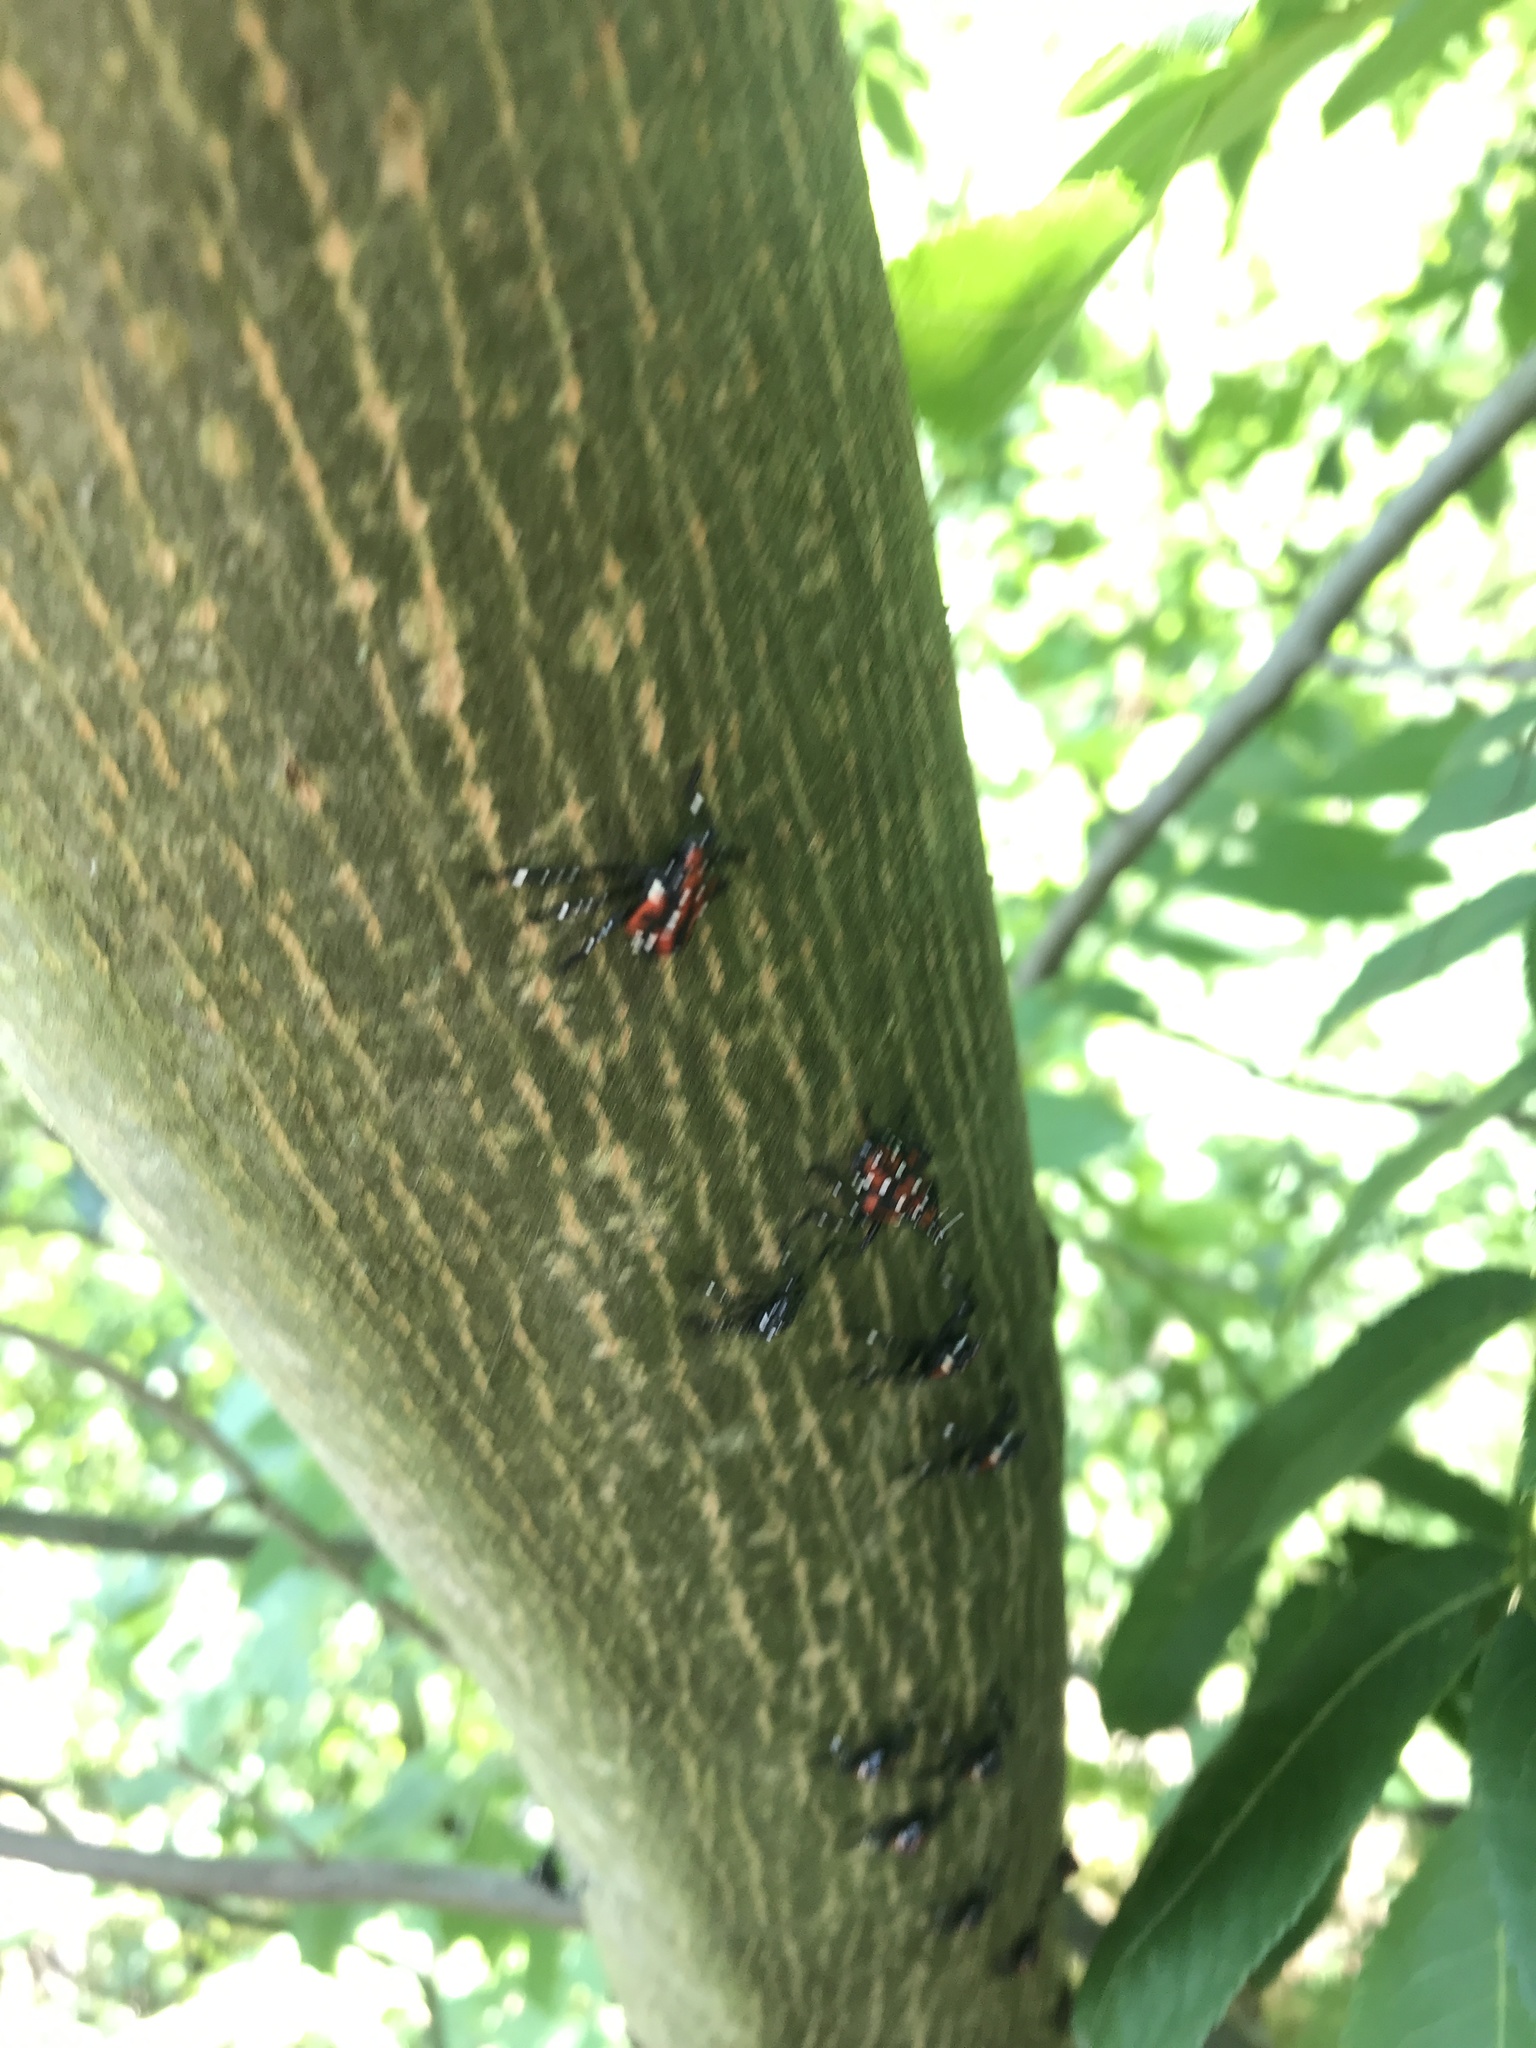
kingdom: Plantae
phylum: Tracheophyta
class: Magnoliopsida
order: Fagales
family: Juglandaceae
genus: Pterocarya
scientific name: Pterocarya stenoptera
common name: Chinese wingnut
